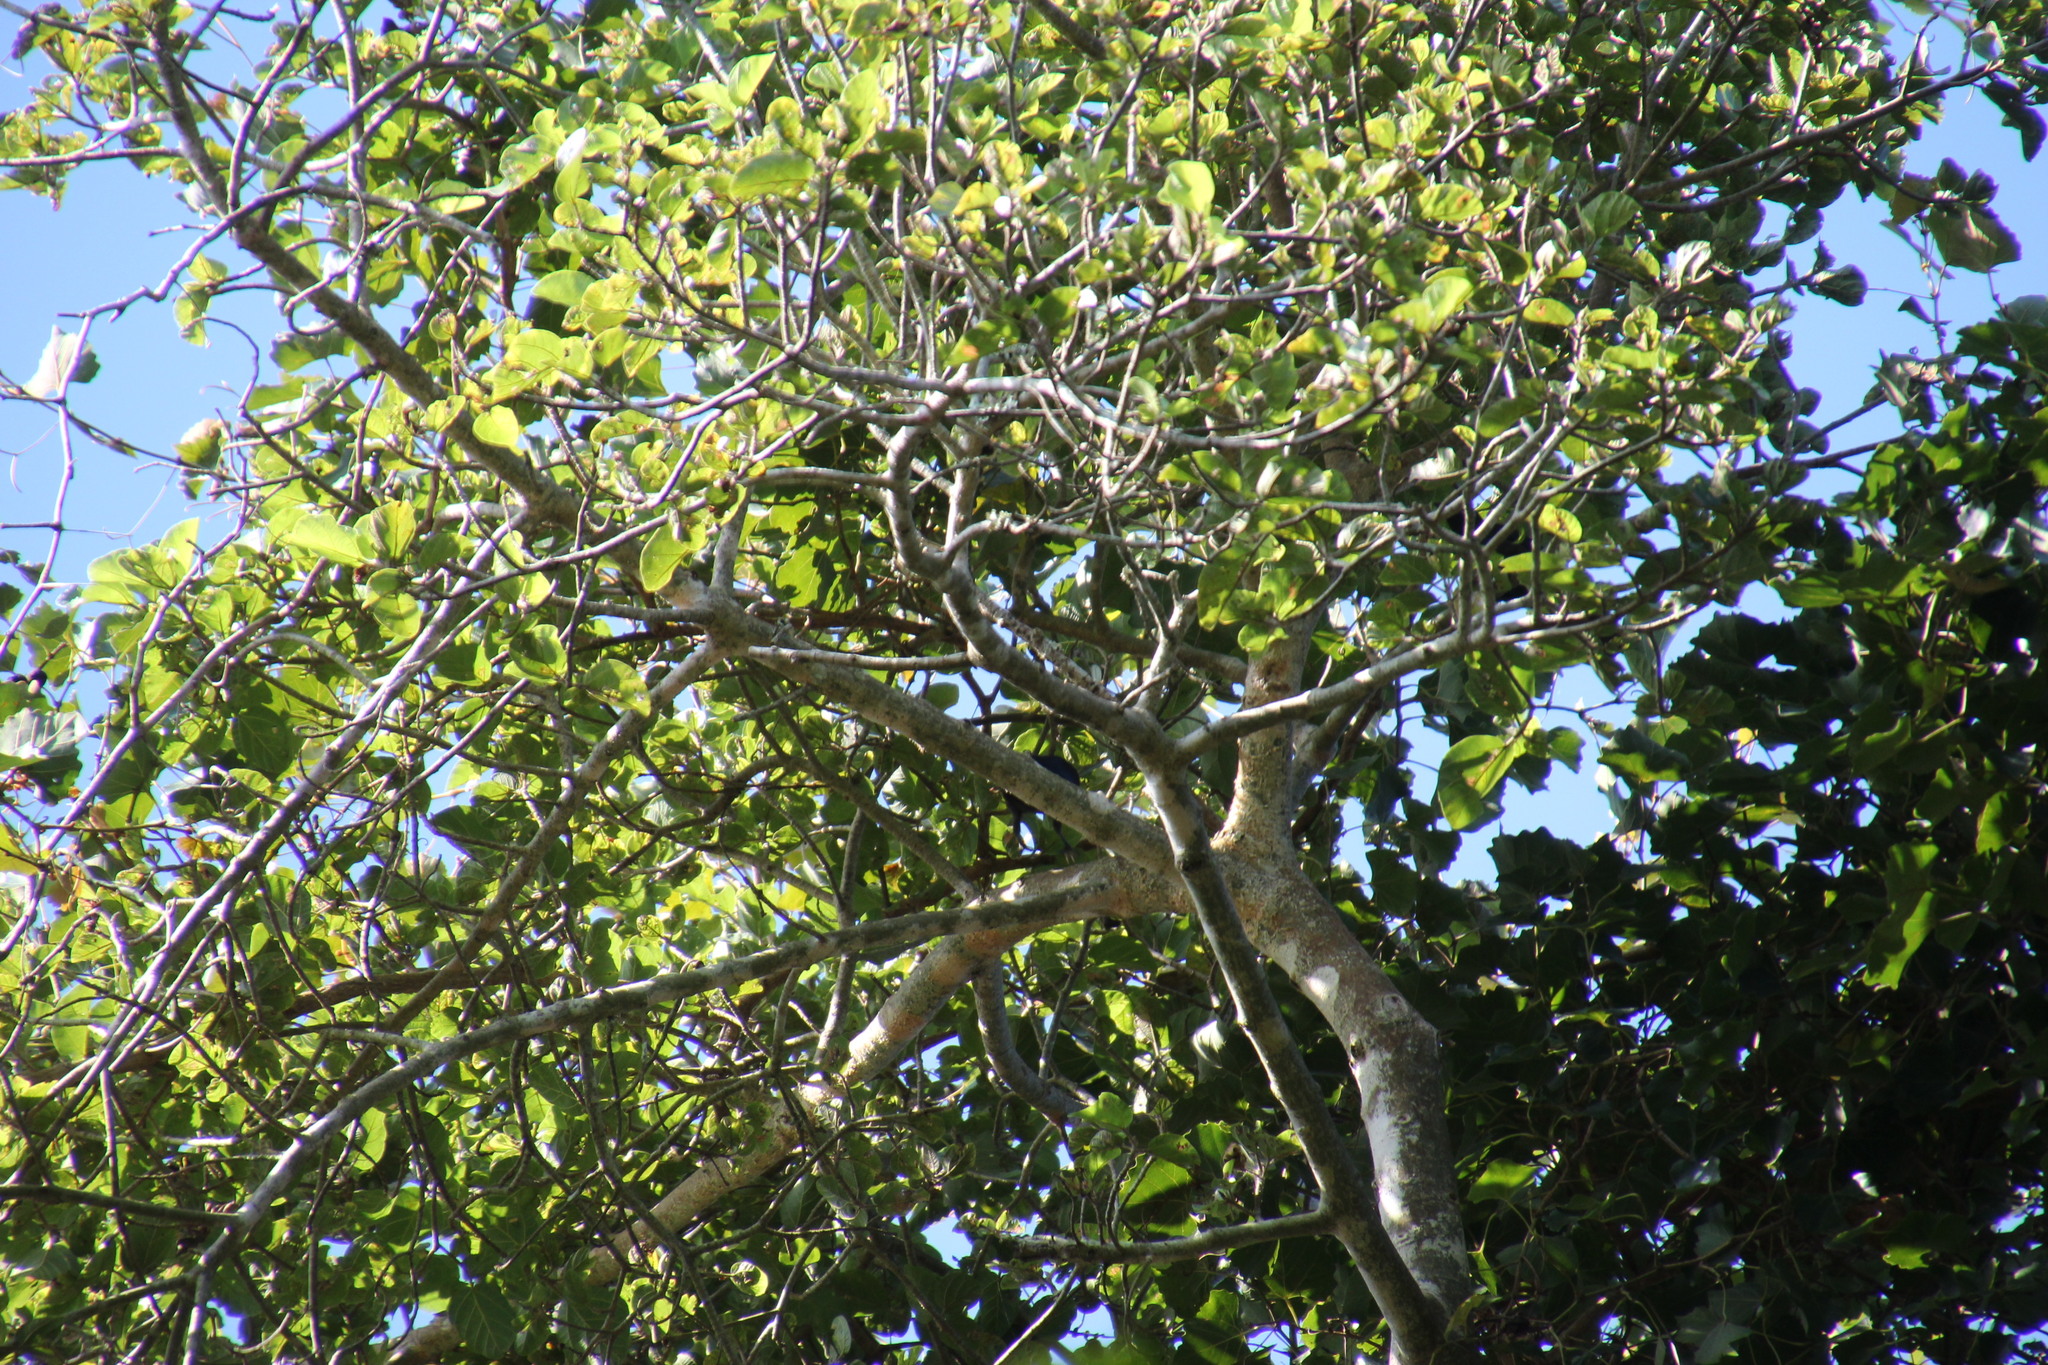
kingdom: Animalia
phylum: Chordata
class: Aves
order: Passeriformes
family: Sturnidae
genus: Notopholia
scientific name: Notopholia corrusca
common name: Black-bellied starling
